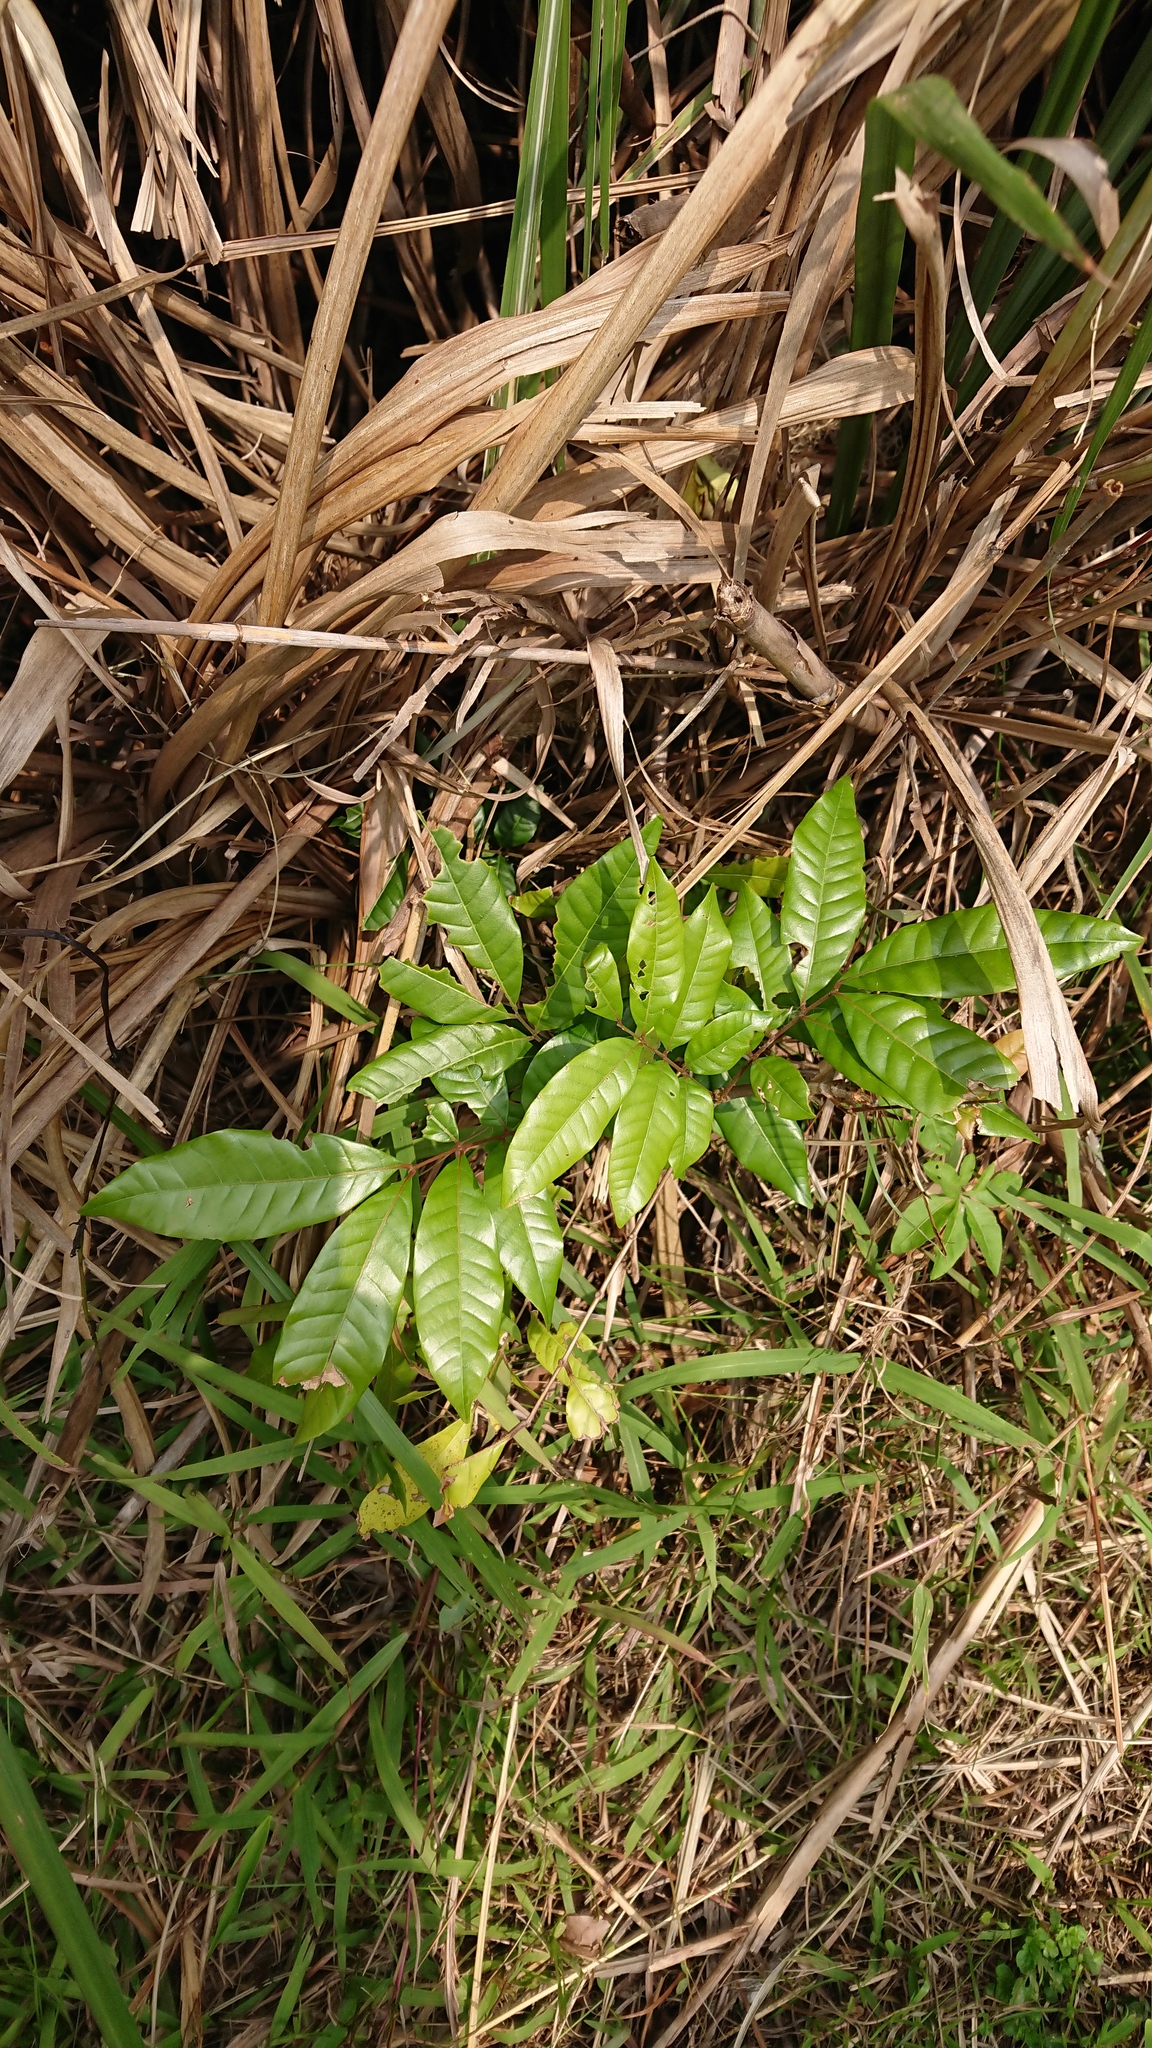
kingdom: Plantae
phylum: Tracheophyta
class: Magnoliopsida
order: Sapindales
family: Sapindaceae
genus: Dimocarpus
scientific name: Dimocarpus longan
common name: Longan
